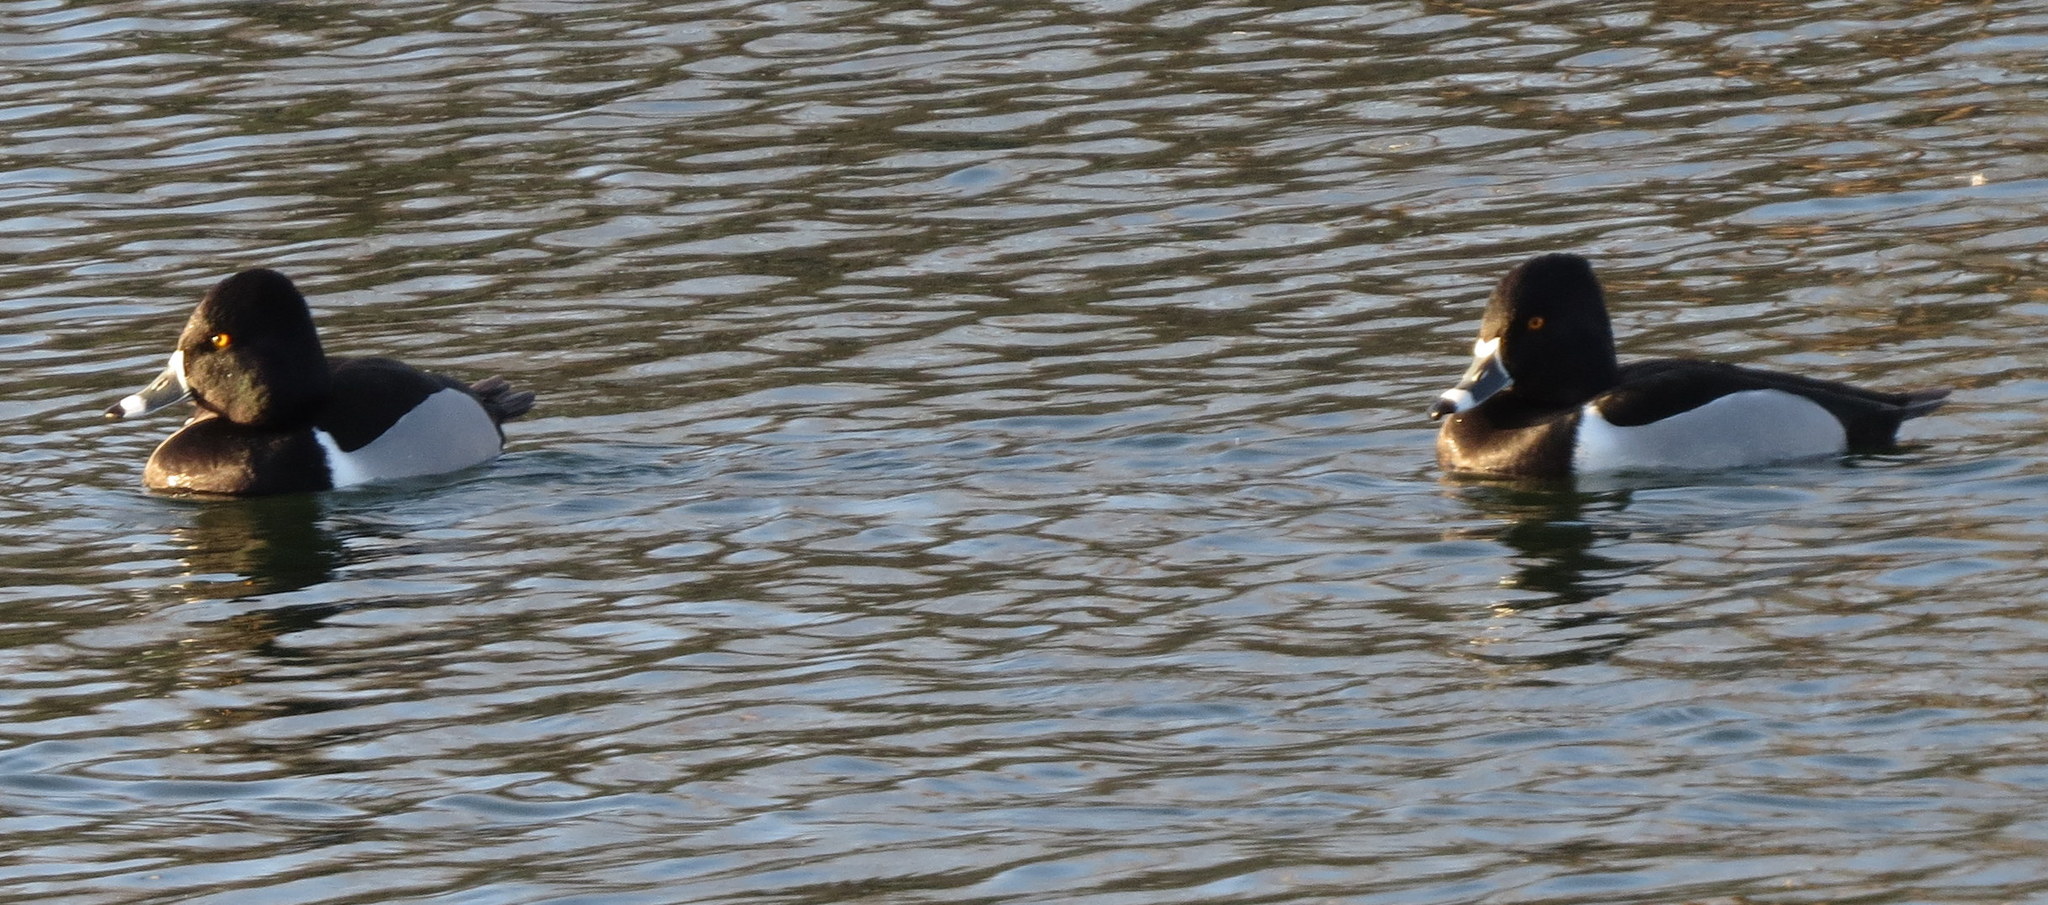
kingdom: Animalia
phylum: Chordata
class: Aves
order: Anseriformes
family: Anatidae
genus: Aythya
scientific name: Aythya collaris
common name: Ring-necked duck
